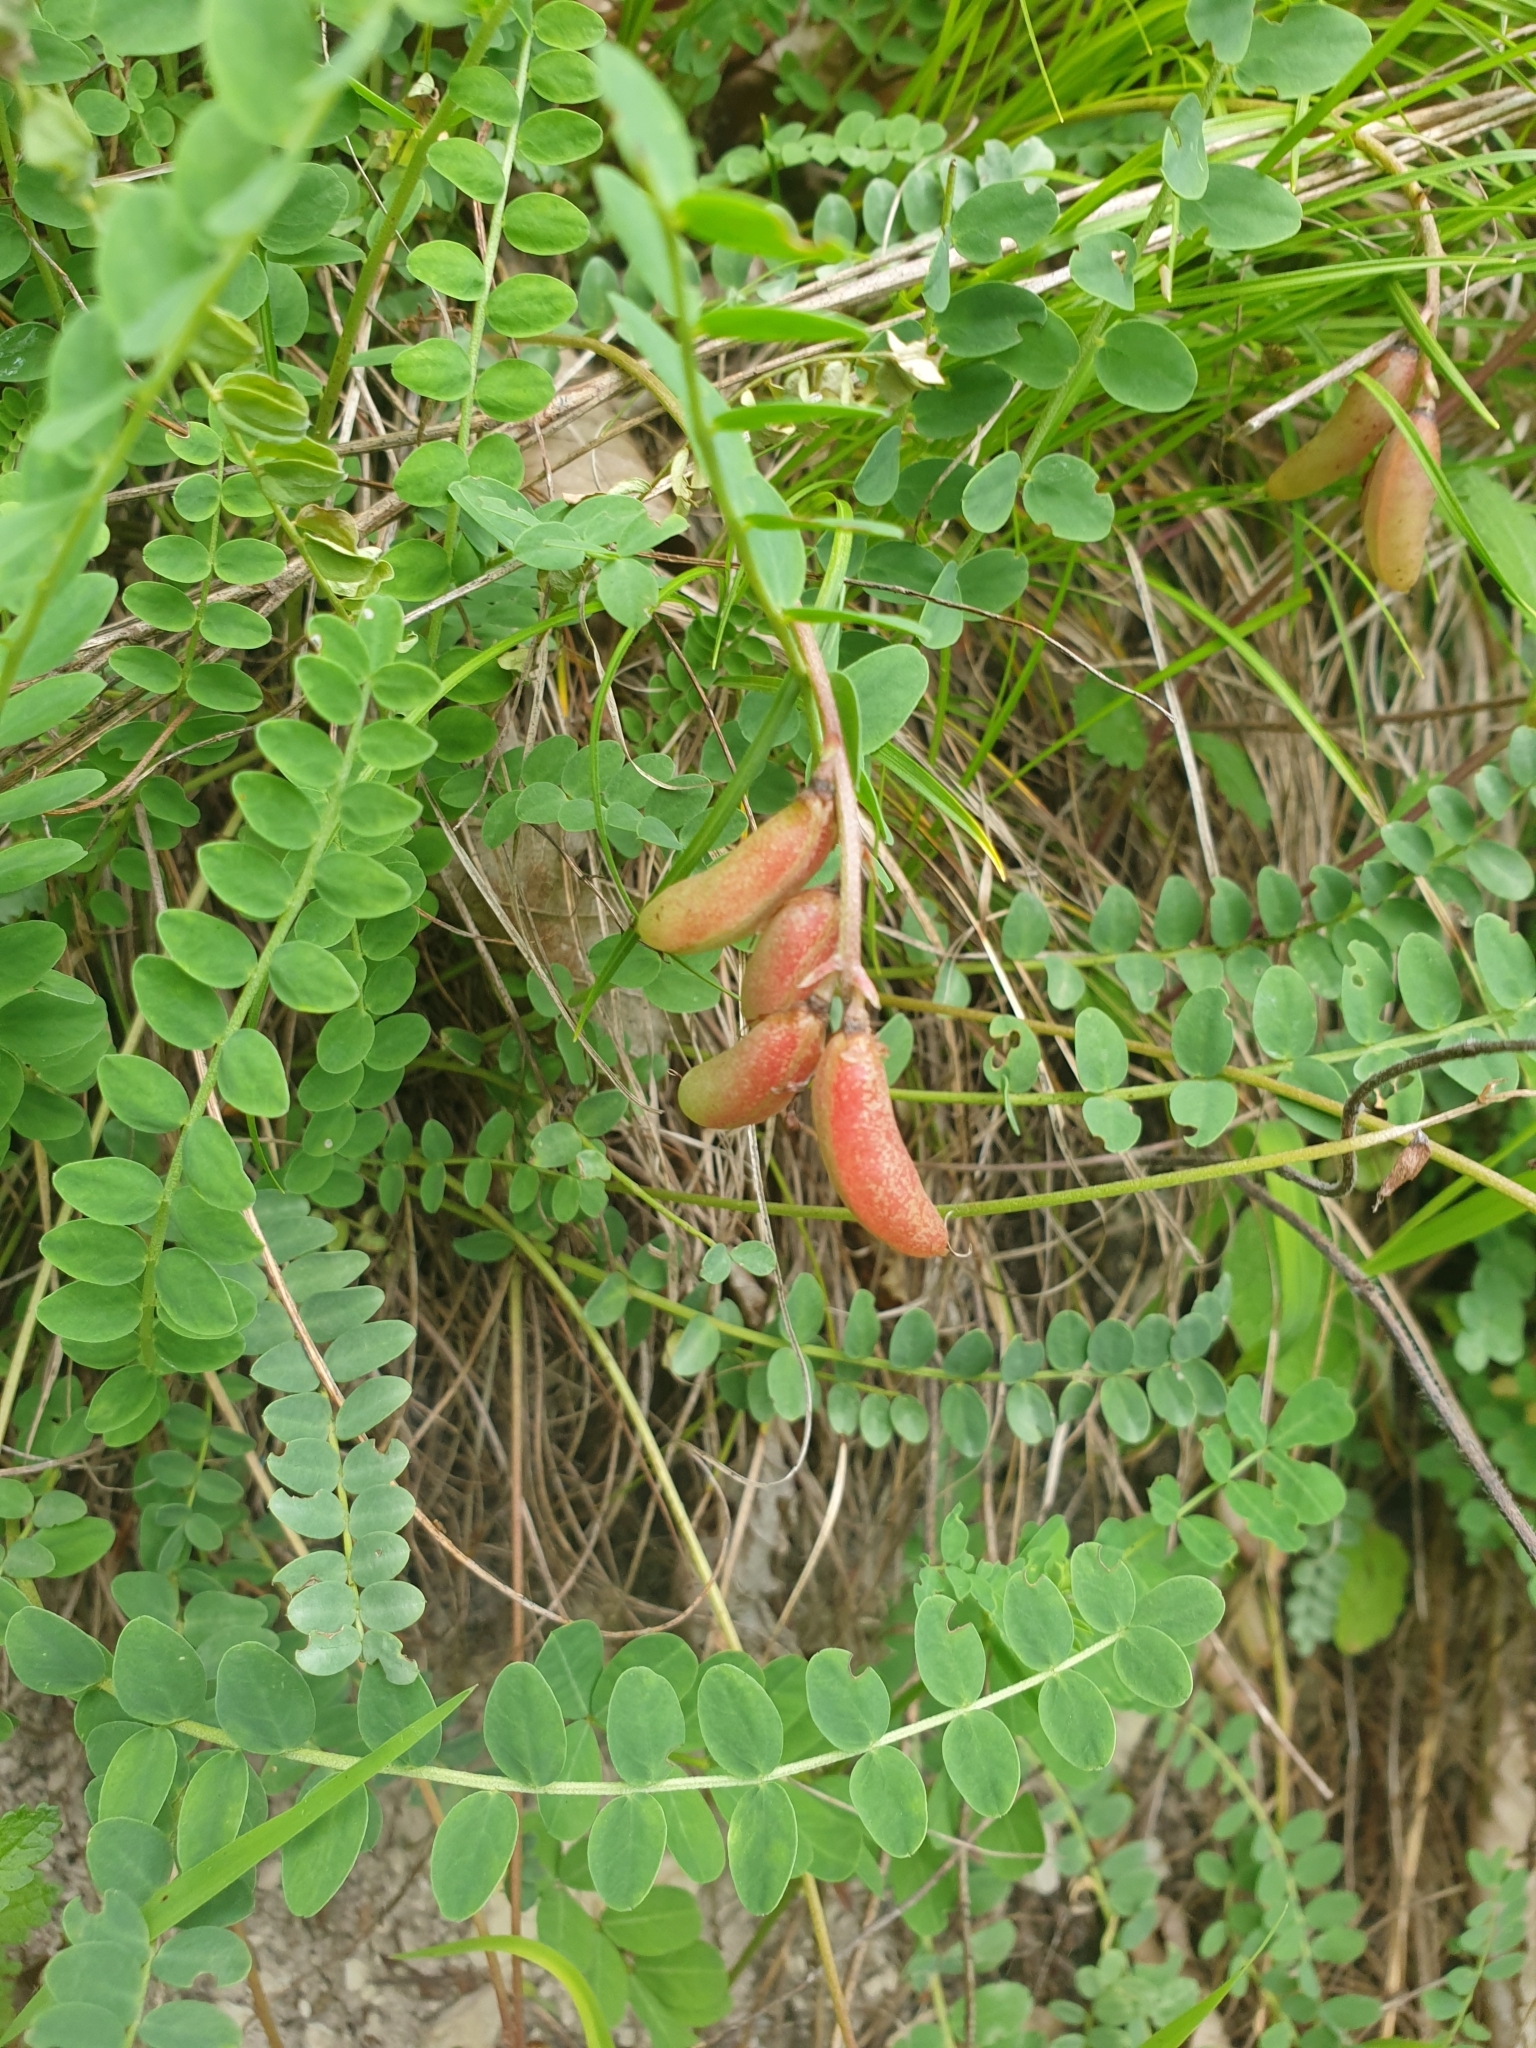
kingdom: Plantae
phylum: Tracheophyta
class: Magnoliopsida
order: Fabales
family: Fabaceae
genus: Astragalus
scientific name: Astragalus salatavicus
